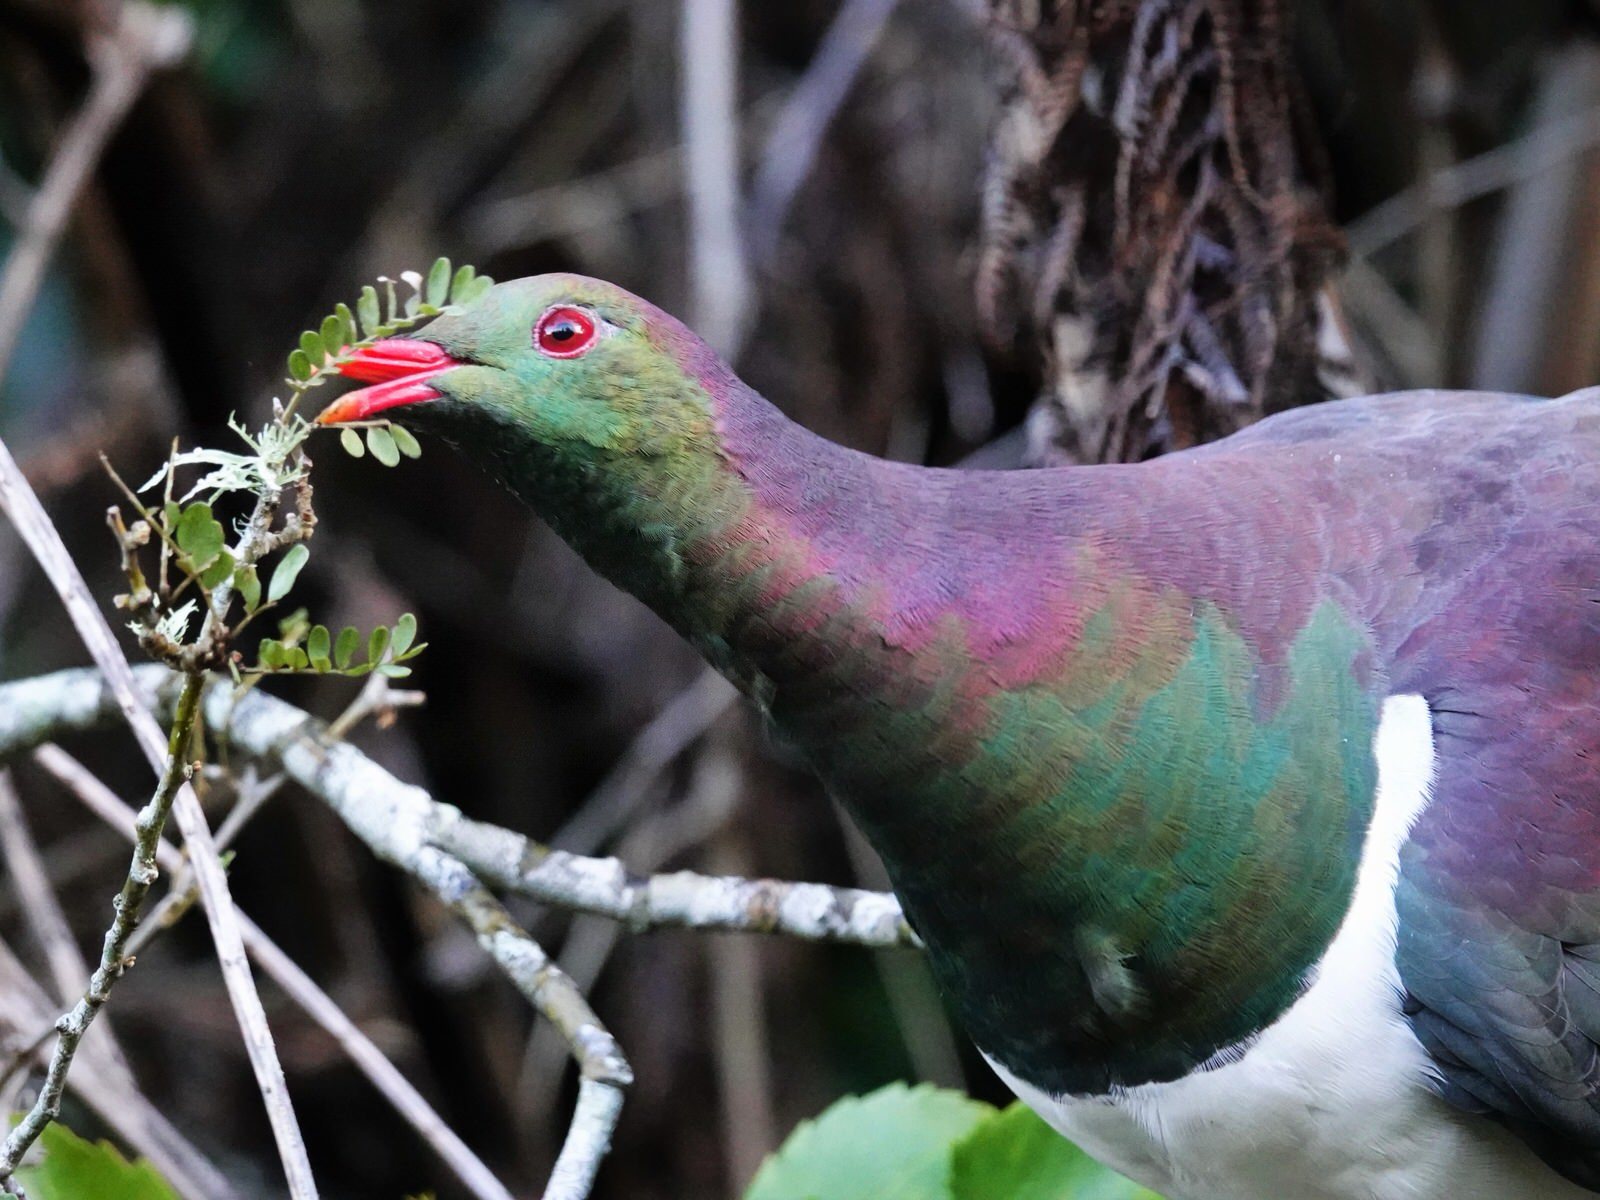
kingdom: Animalia
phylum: Chordata
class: Aves
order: Columbiformes
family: Columbidae
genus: Hemiphaga
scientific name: Hemiphaga novaeseelandiae
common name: New zealand pigeon
